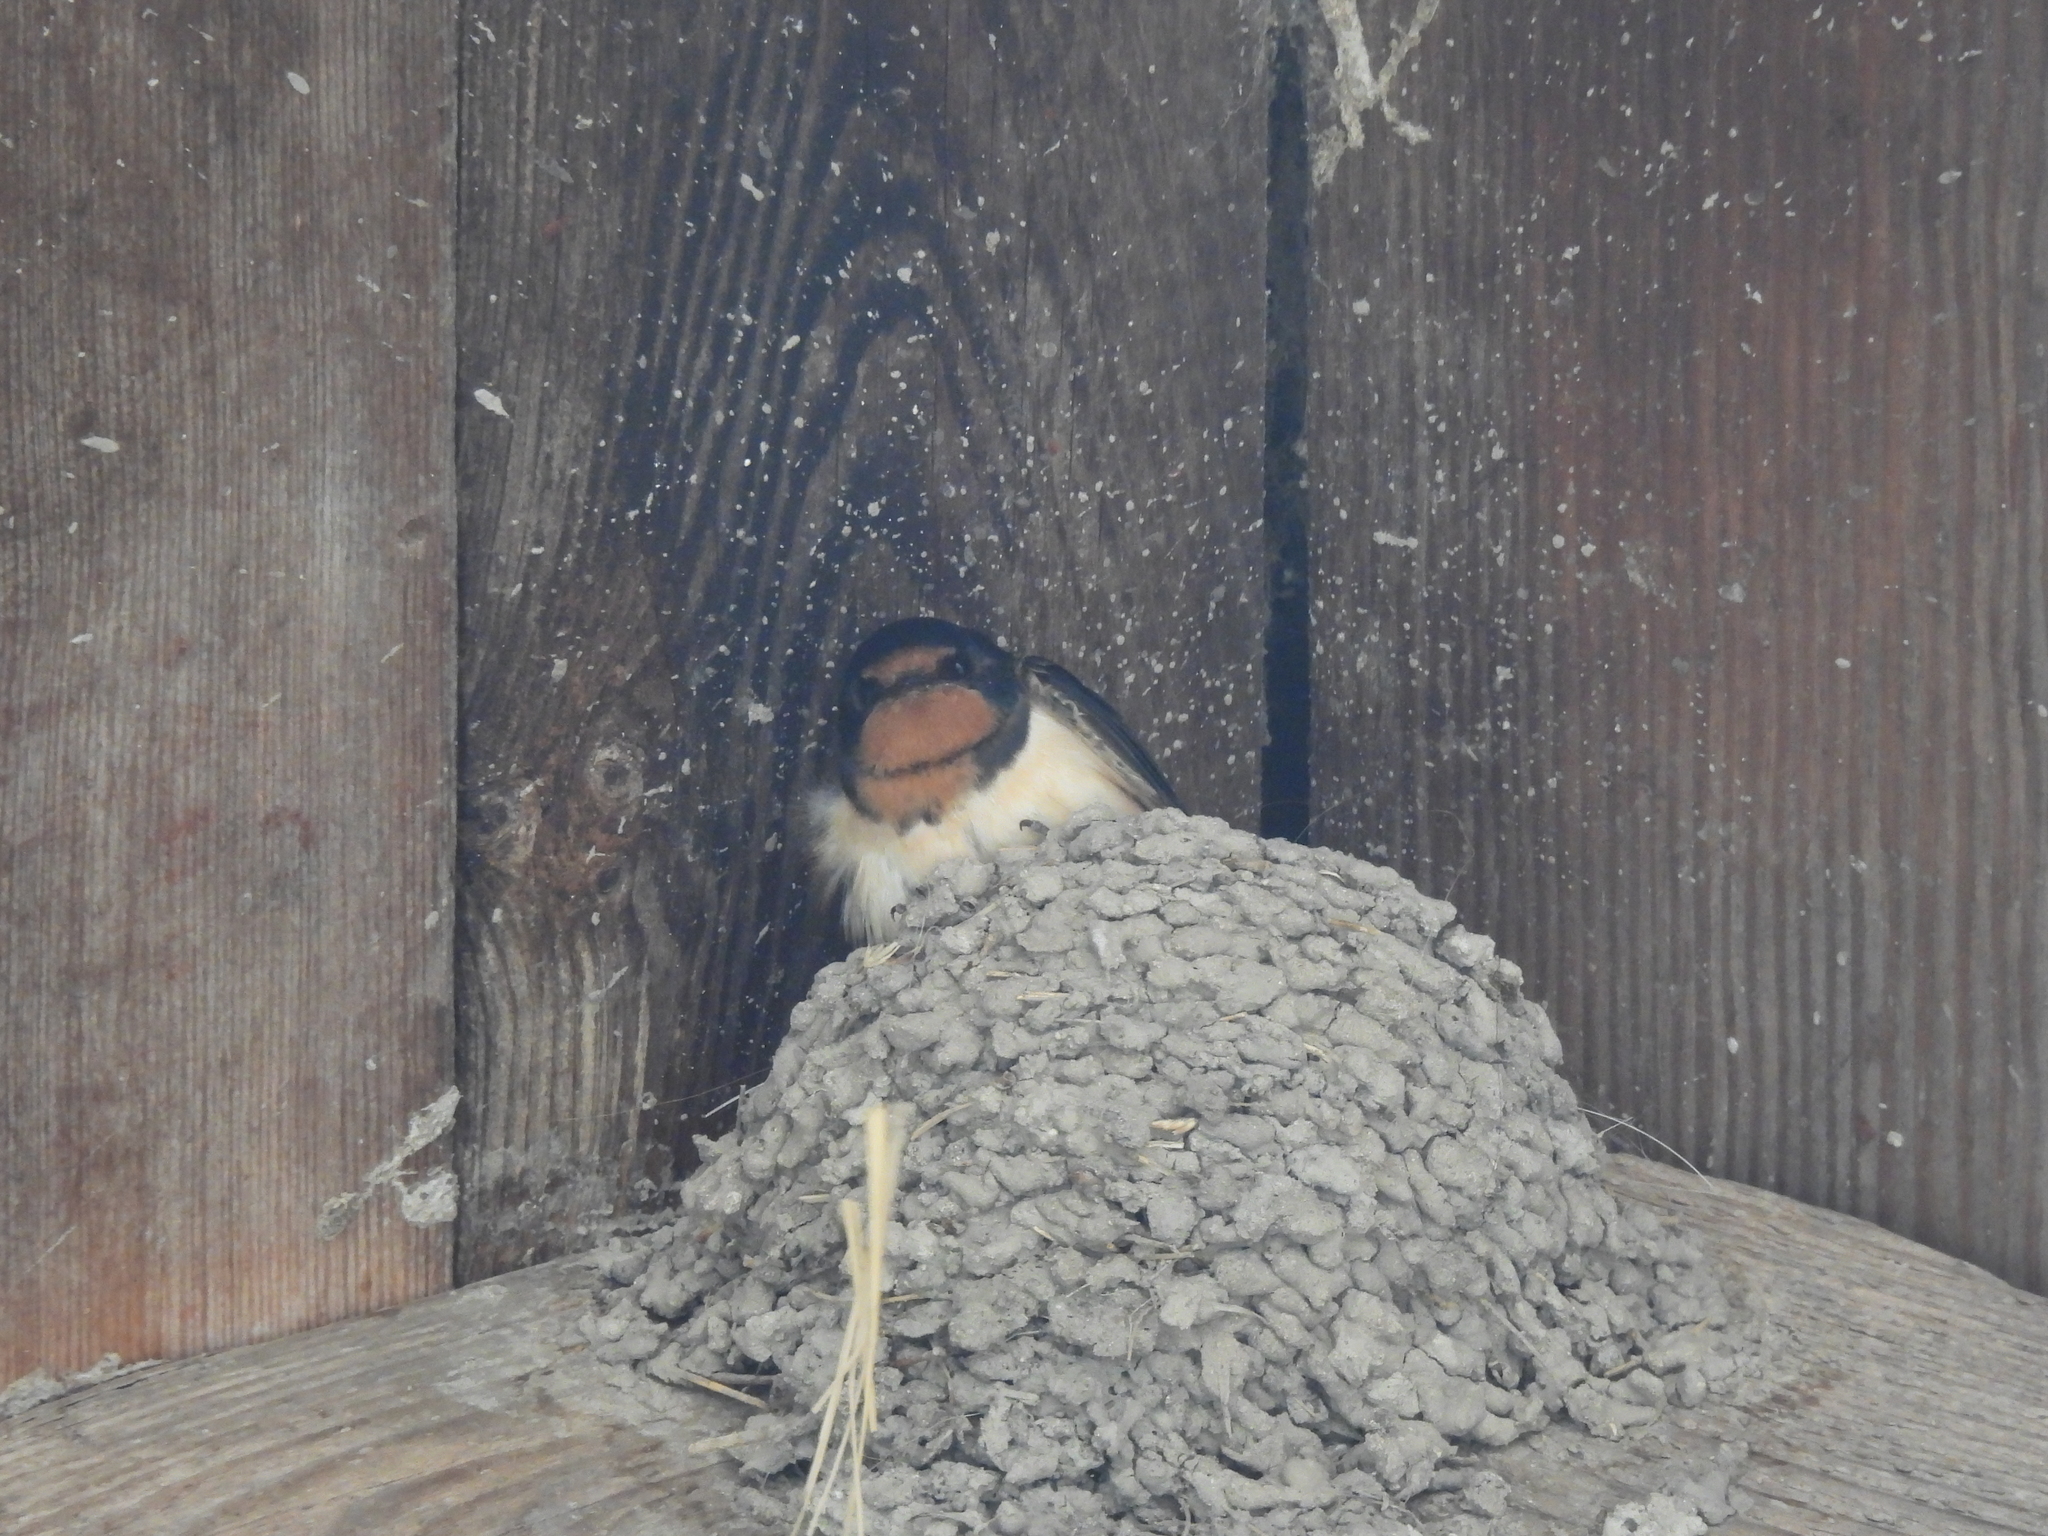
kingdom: Animalia
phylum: Chordata
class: Aves
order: Passeriformes
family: Hirundinidae
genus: Hirundo
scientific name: Hirundo rustica
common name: Barn swallow
